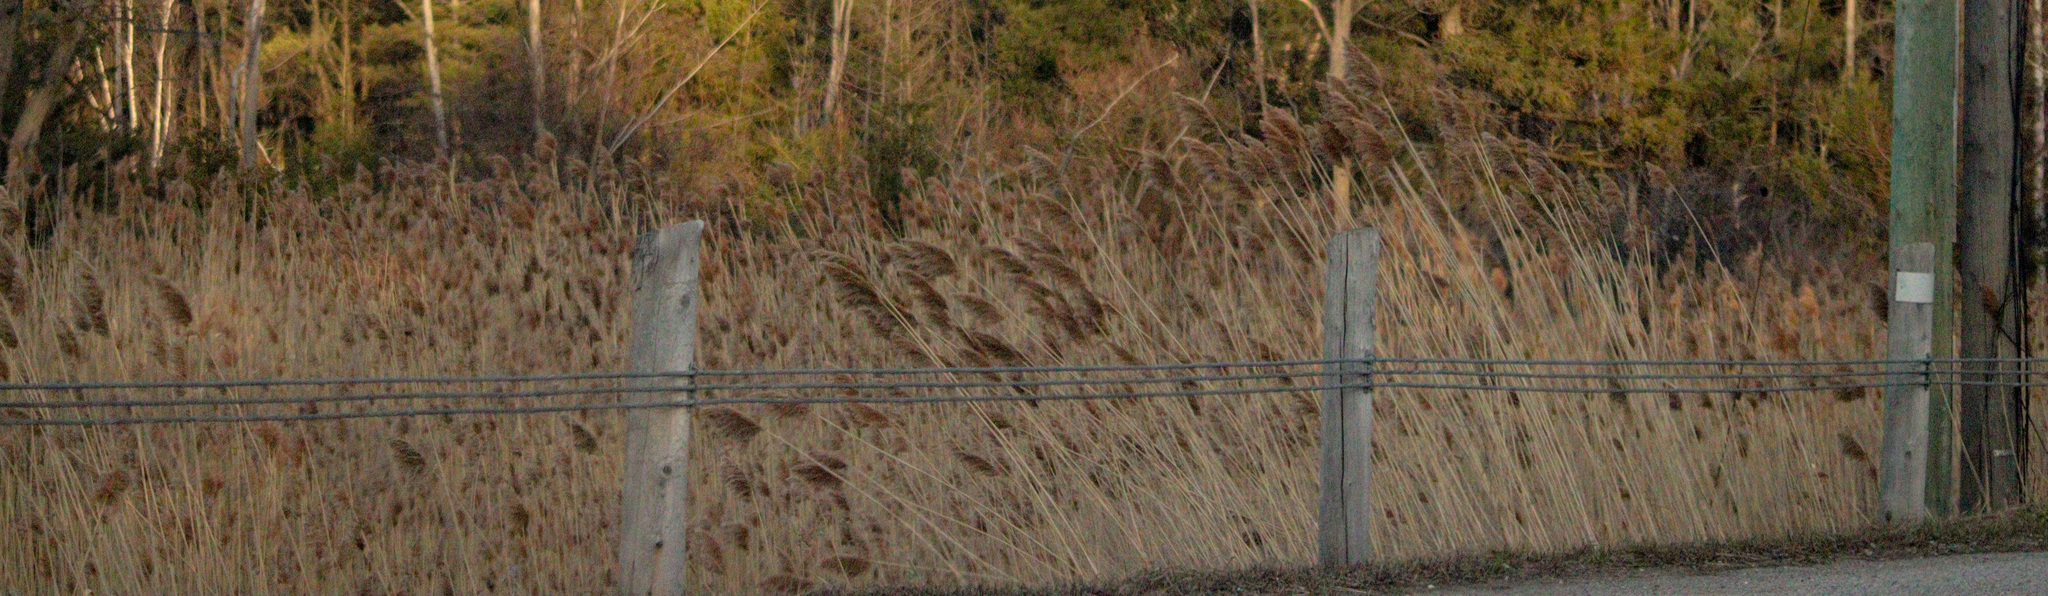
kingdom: Plantae
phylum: Tracheophyta
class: Liliopsida
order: Poales
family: Poaceae
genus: Phragmites
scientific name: Phragmites australis
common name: Common reed
